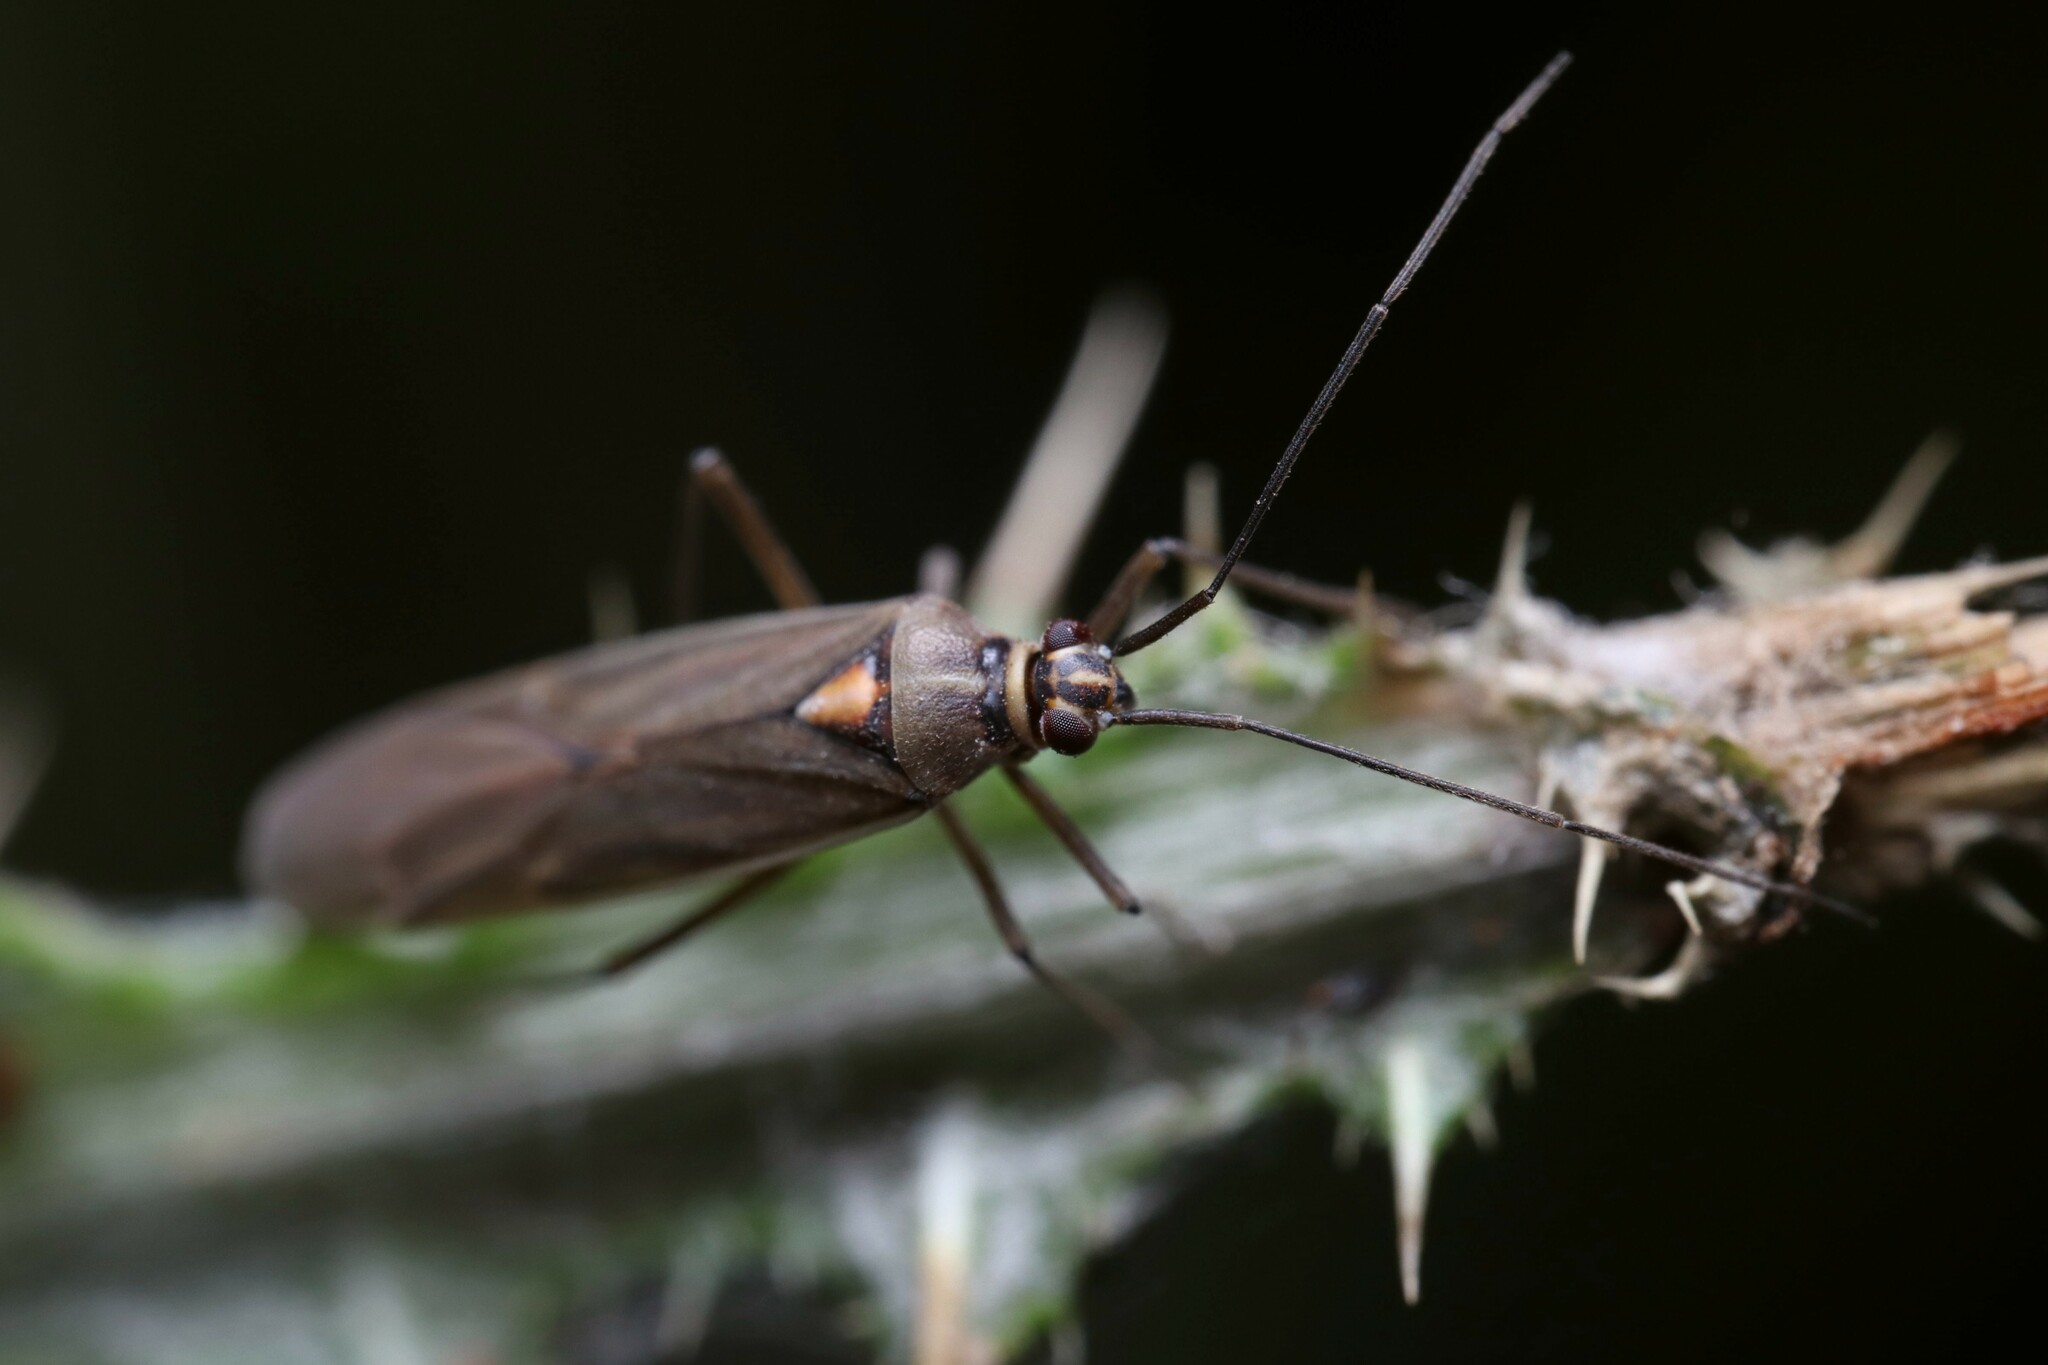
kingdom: Animalia
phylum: Arthropoda
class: Insecta
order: Hemiptera
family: Miridae
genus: Stenoparedra
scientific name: Stenoparedra
